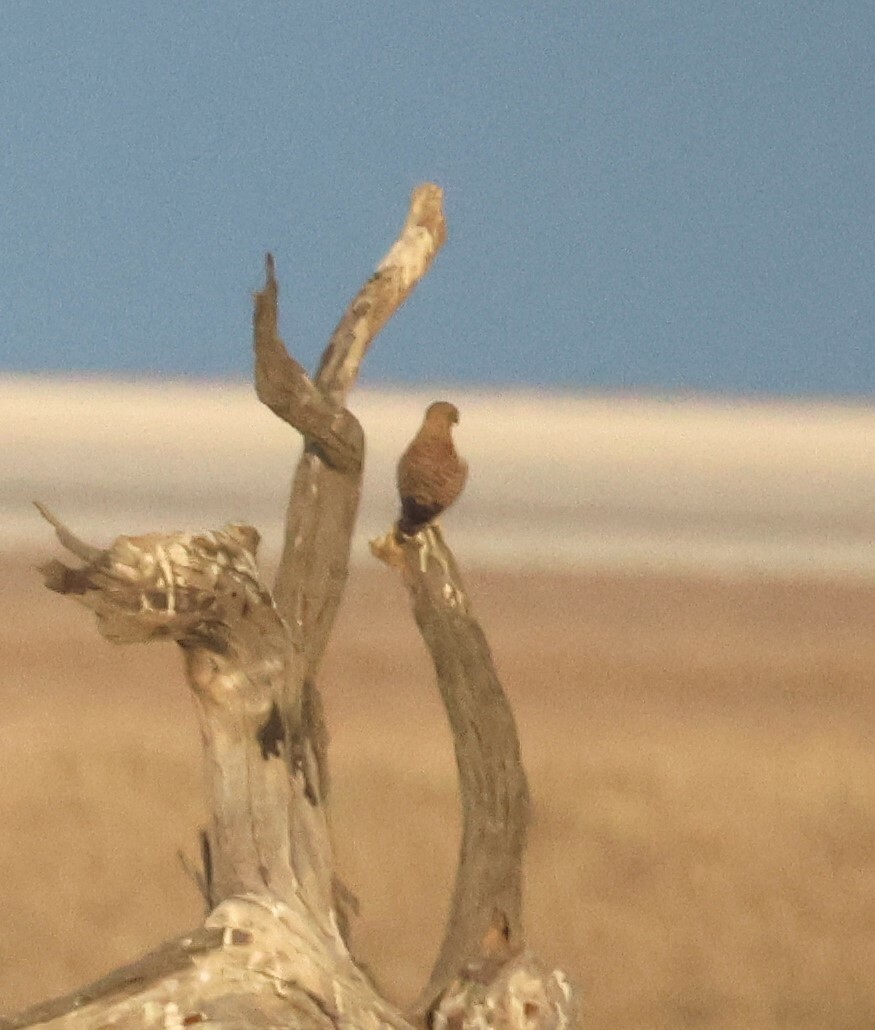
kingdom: Animalia
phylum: Chordata
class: Aves
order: Falconiformes
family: Falconidae
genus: Falco
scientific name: Falco rupicoloides
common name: Greater kestrel
